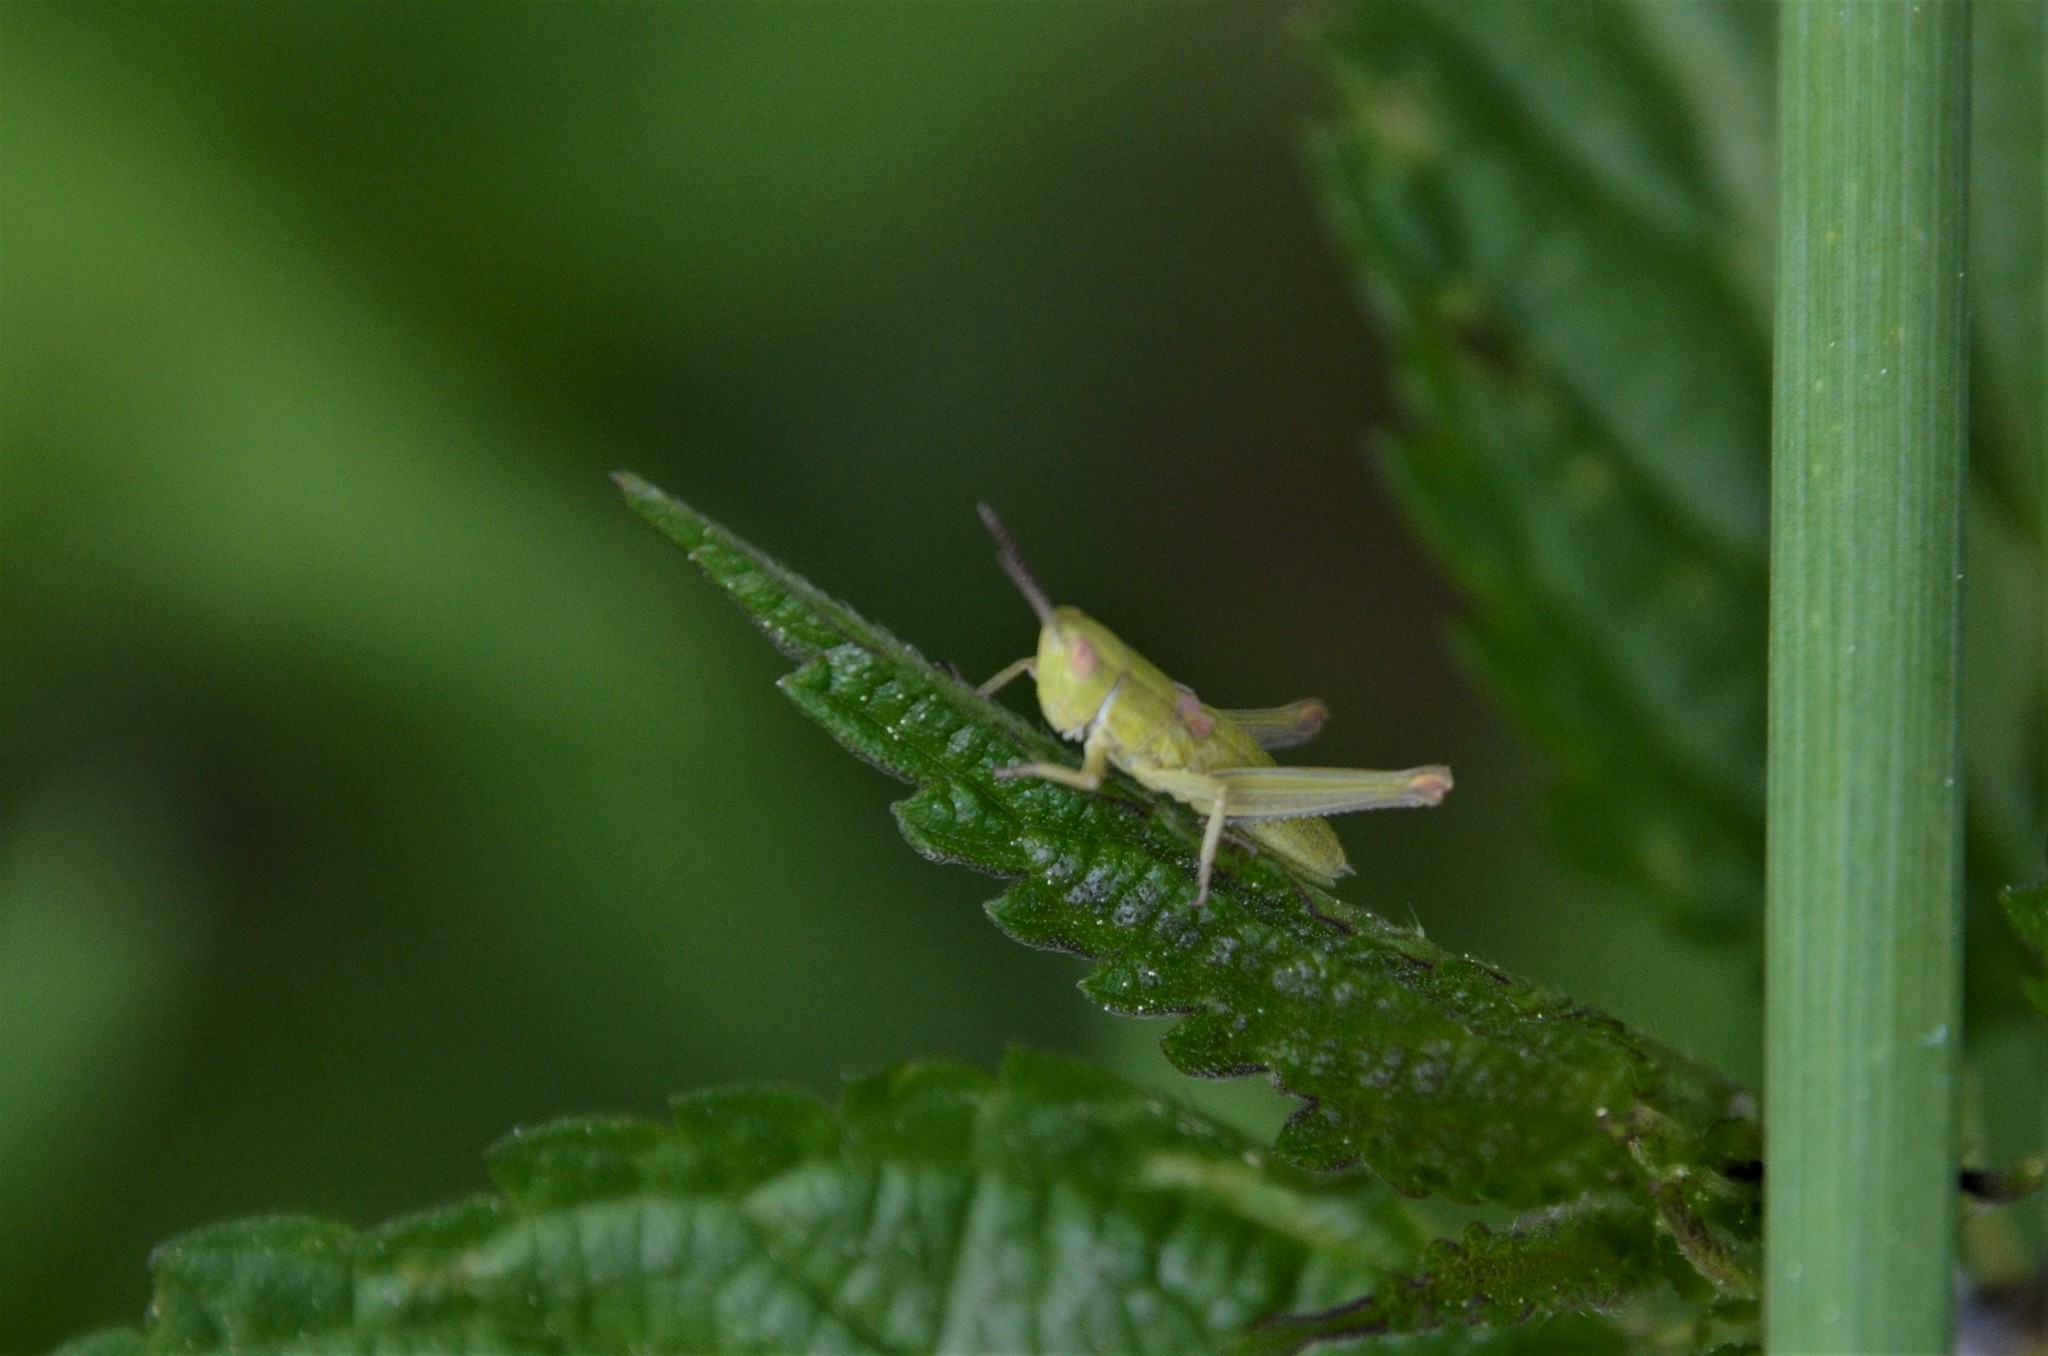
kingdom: Animalia
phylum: Arthropoda
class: Insecta
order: Orthoptera
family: Acrididae
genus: Euthystira
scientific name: Euthystira brachyptera
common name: Small gold grasshopper
